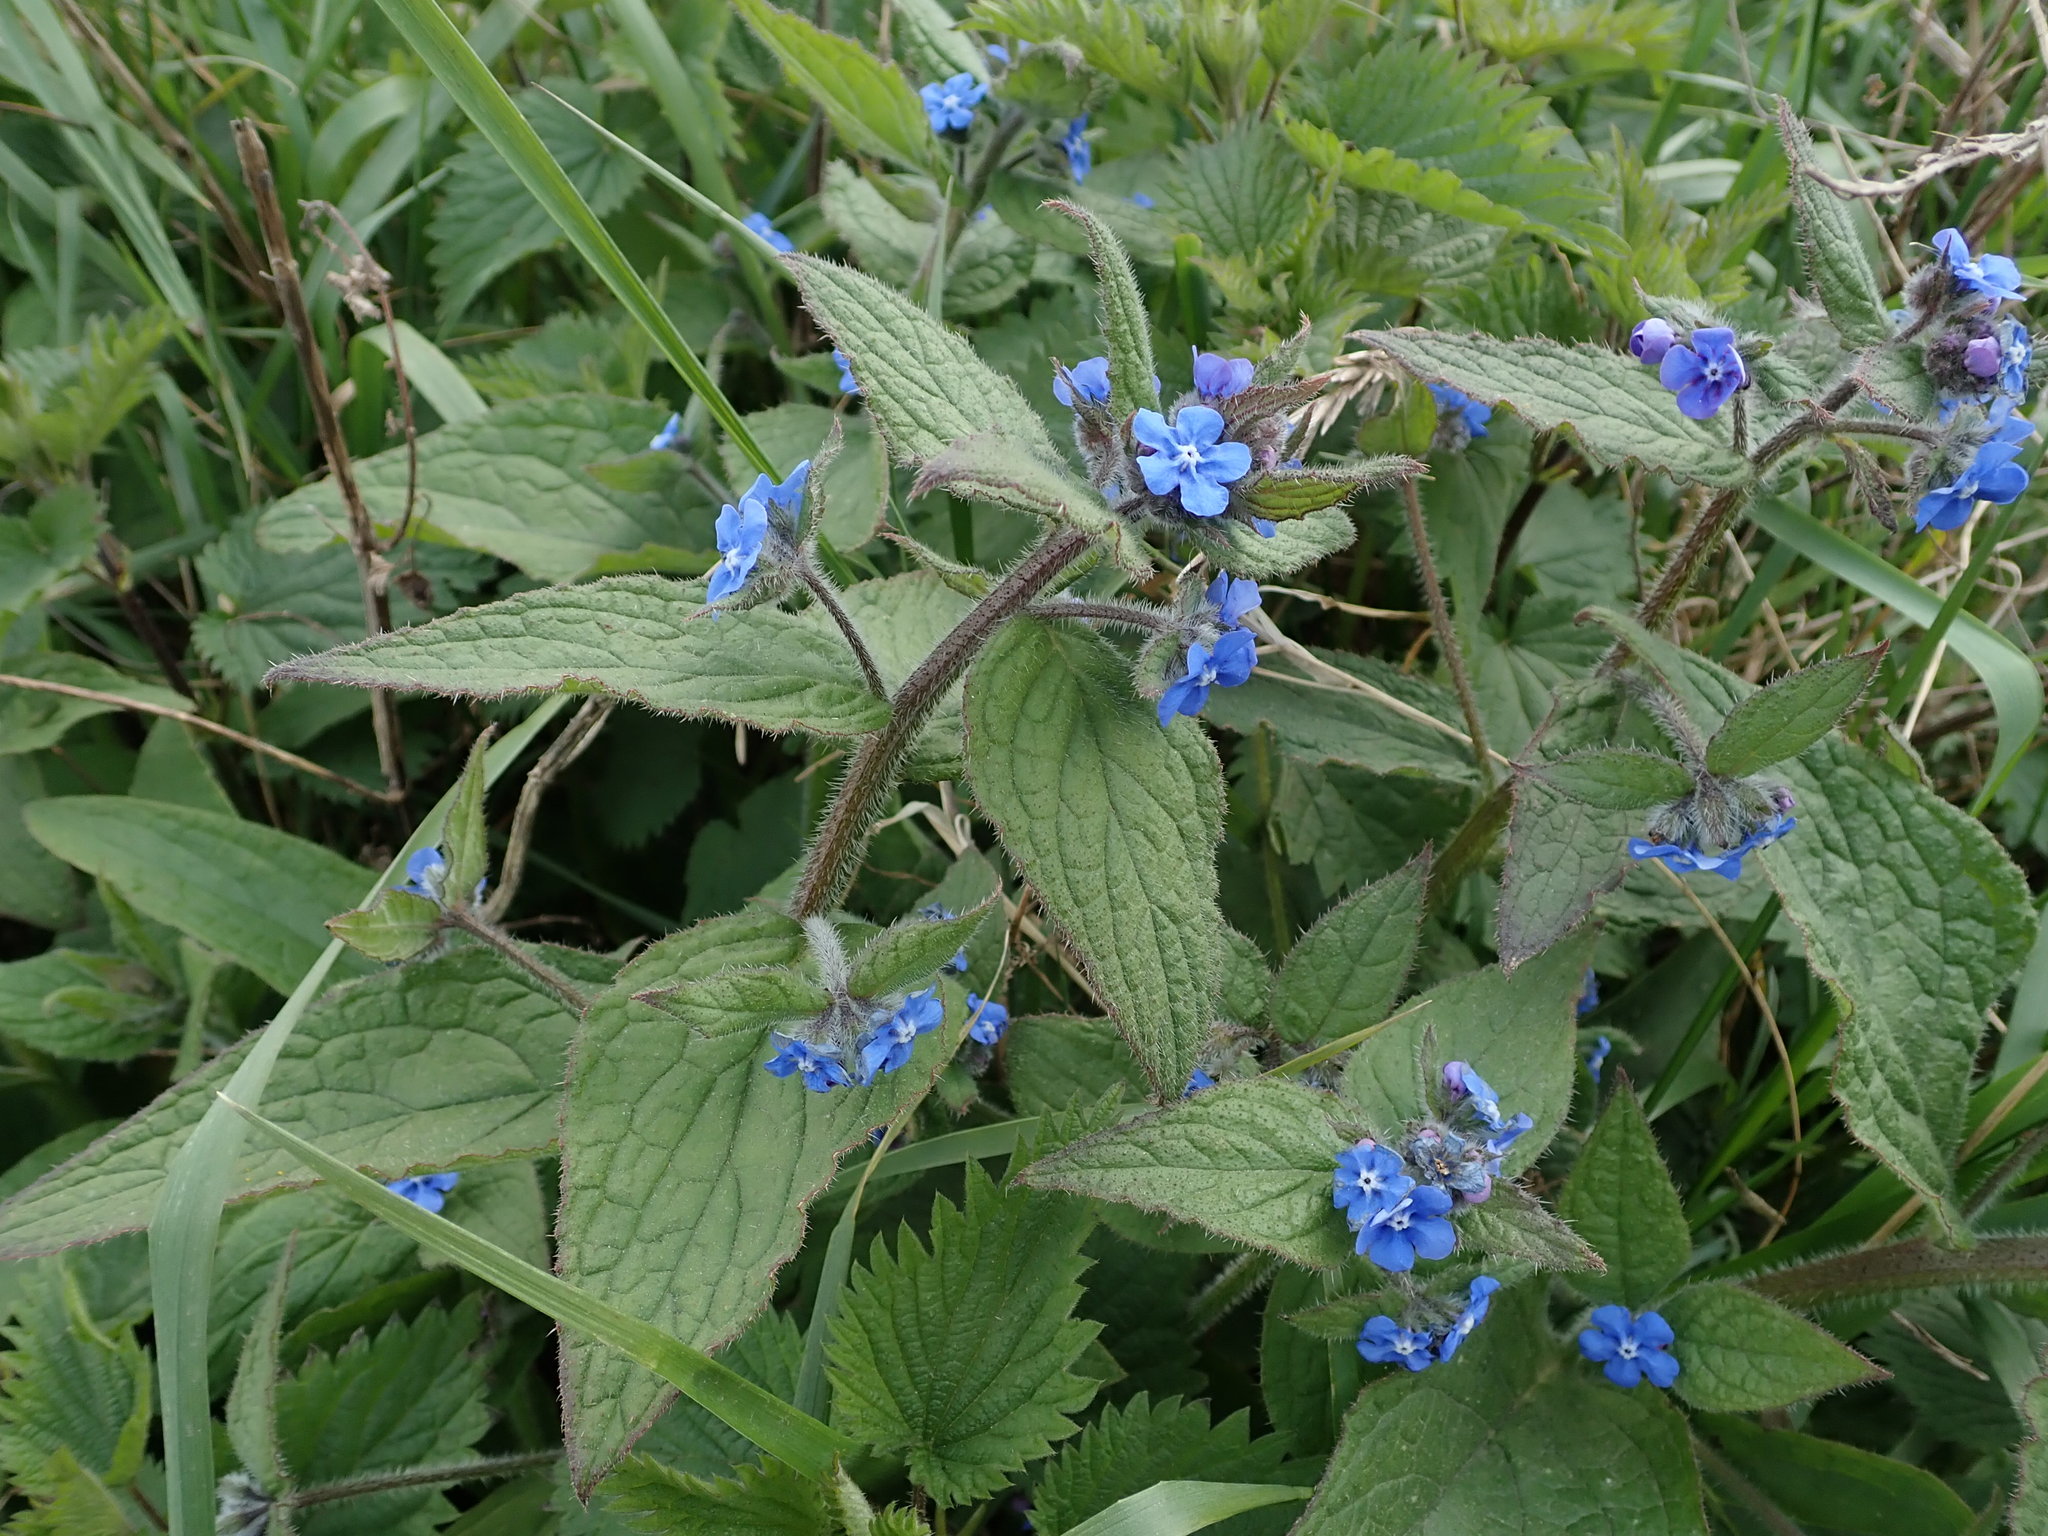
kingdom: Plantae
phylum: Tracheophyta
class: Magnoliopsida
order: Boraginales
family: Boraginaceae
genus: Pentaglottis
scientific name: Pentaglottis sempervirens
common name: Green alkanet
